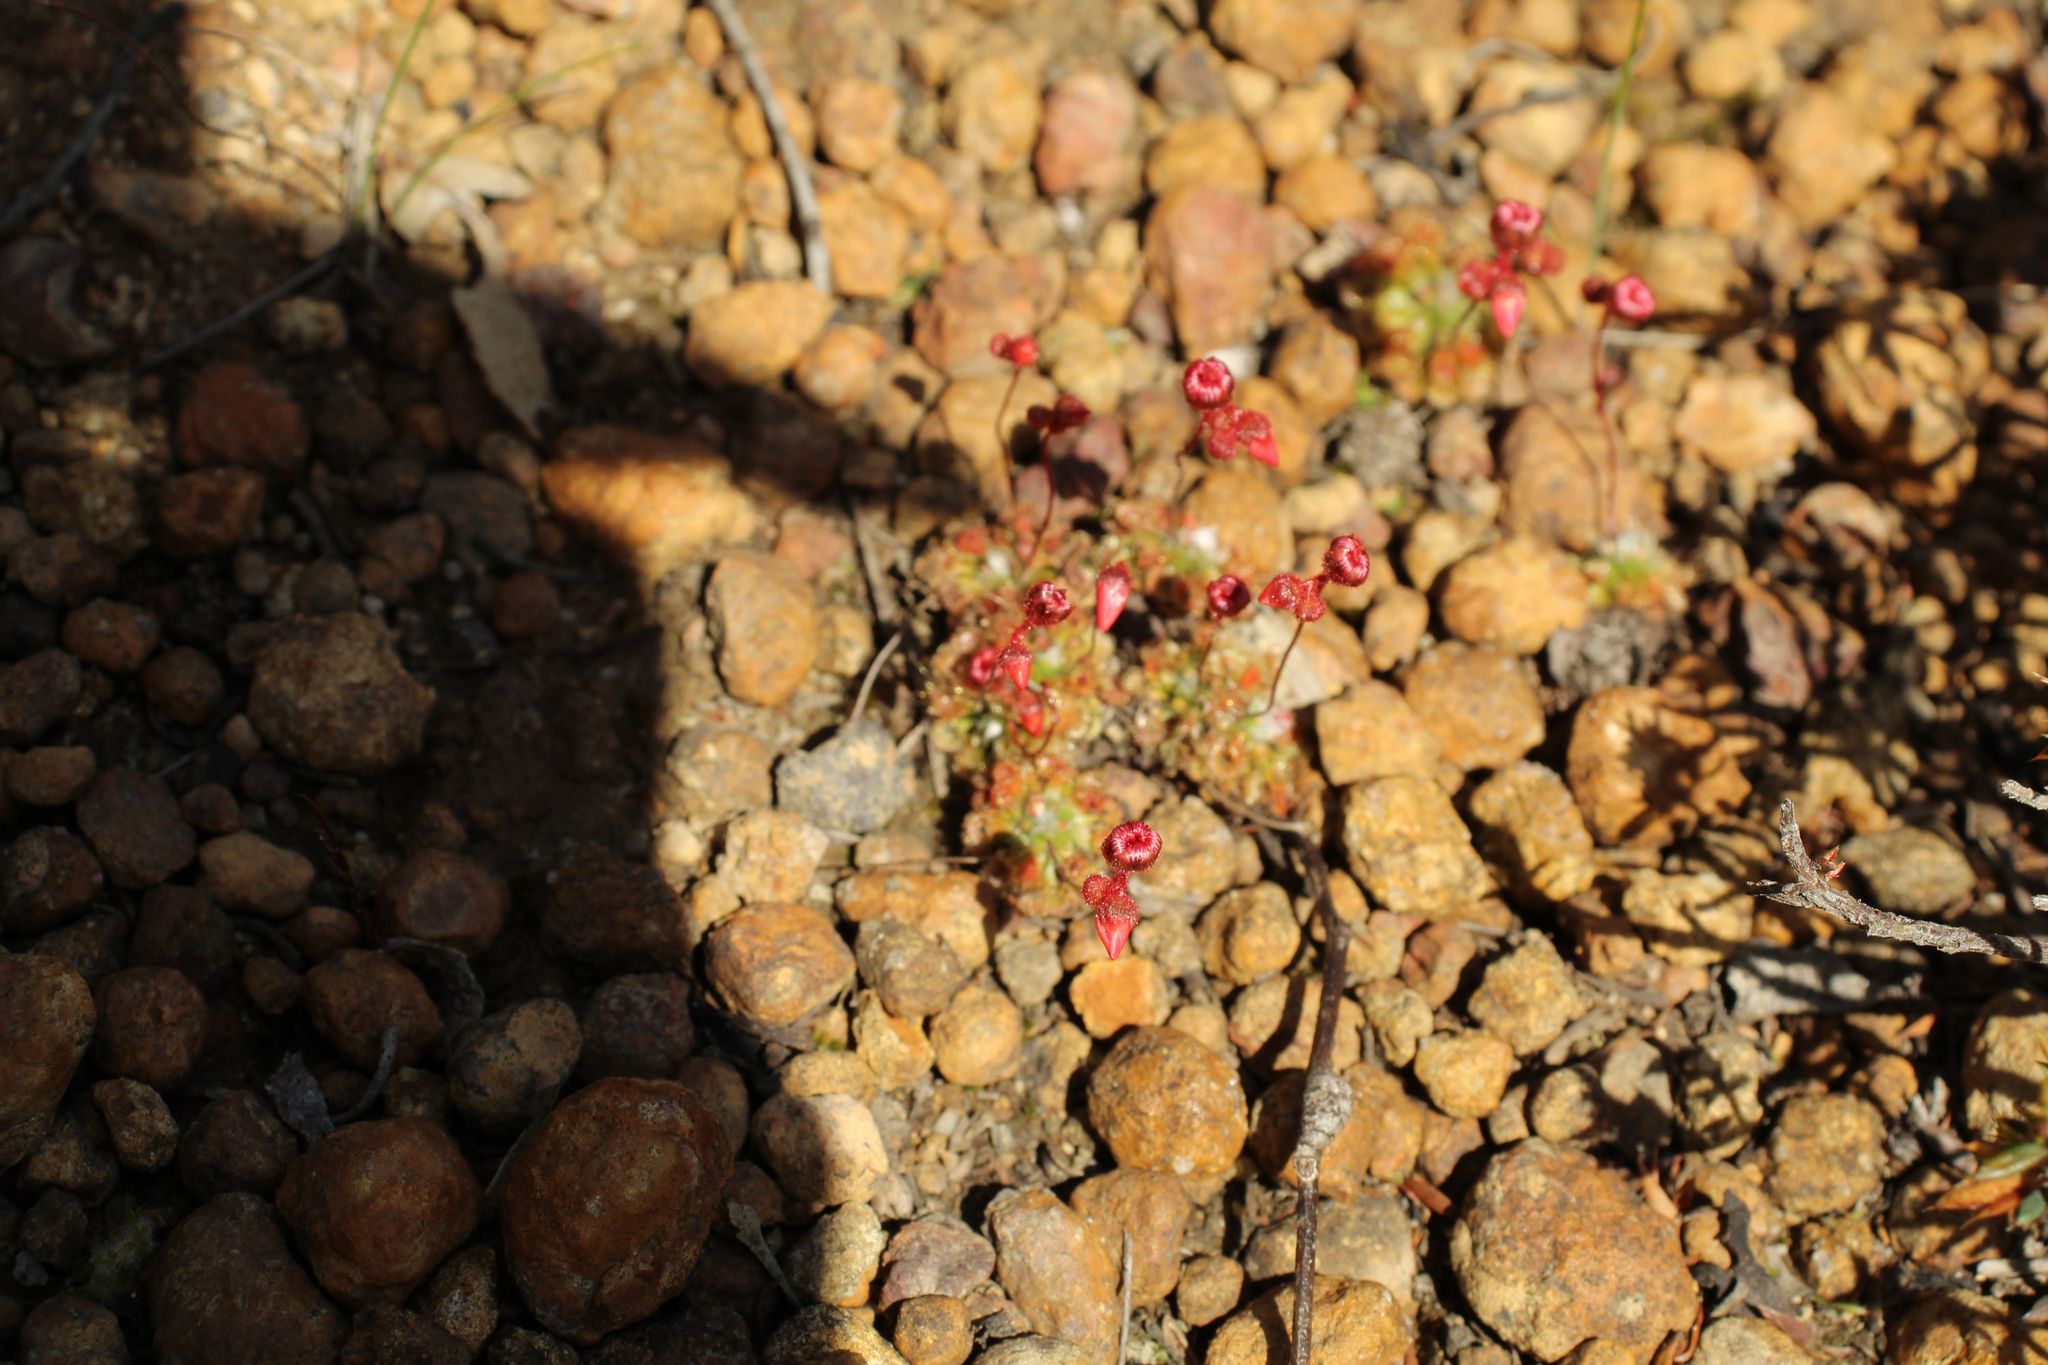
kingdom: Plantae
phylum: Tracheophyta
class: Magnoliopsida
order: Caryophyllales
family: Droseraceae
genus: Drosera
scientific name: Drosera platystigma
